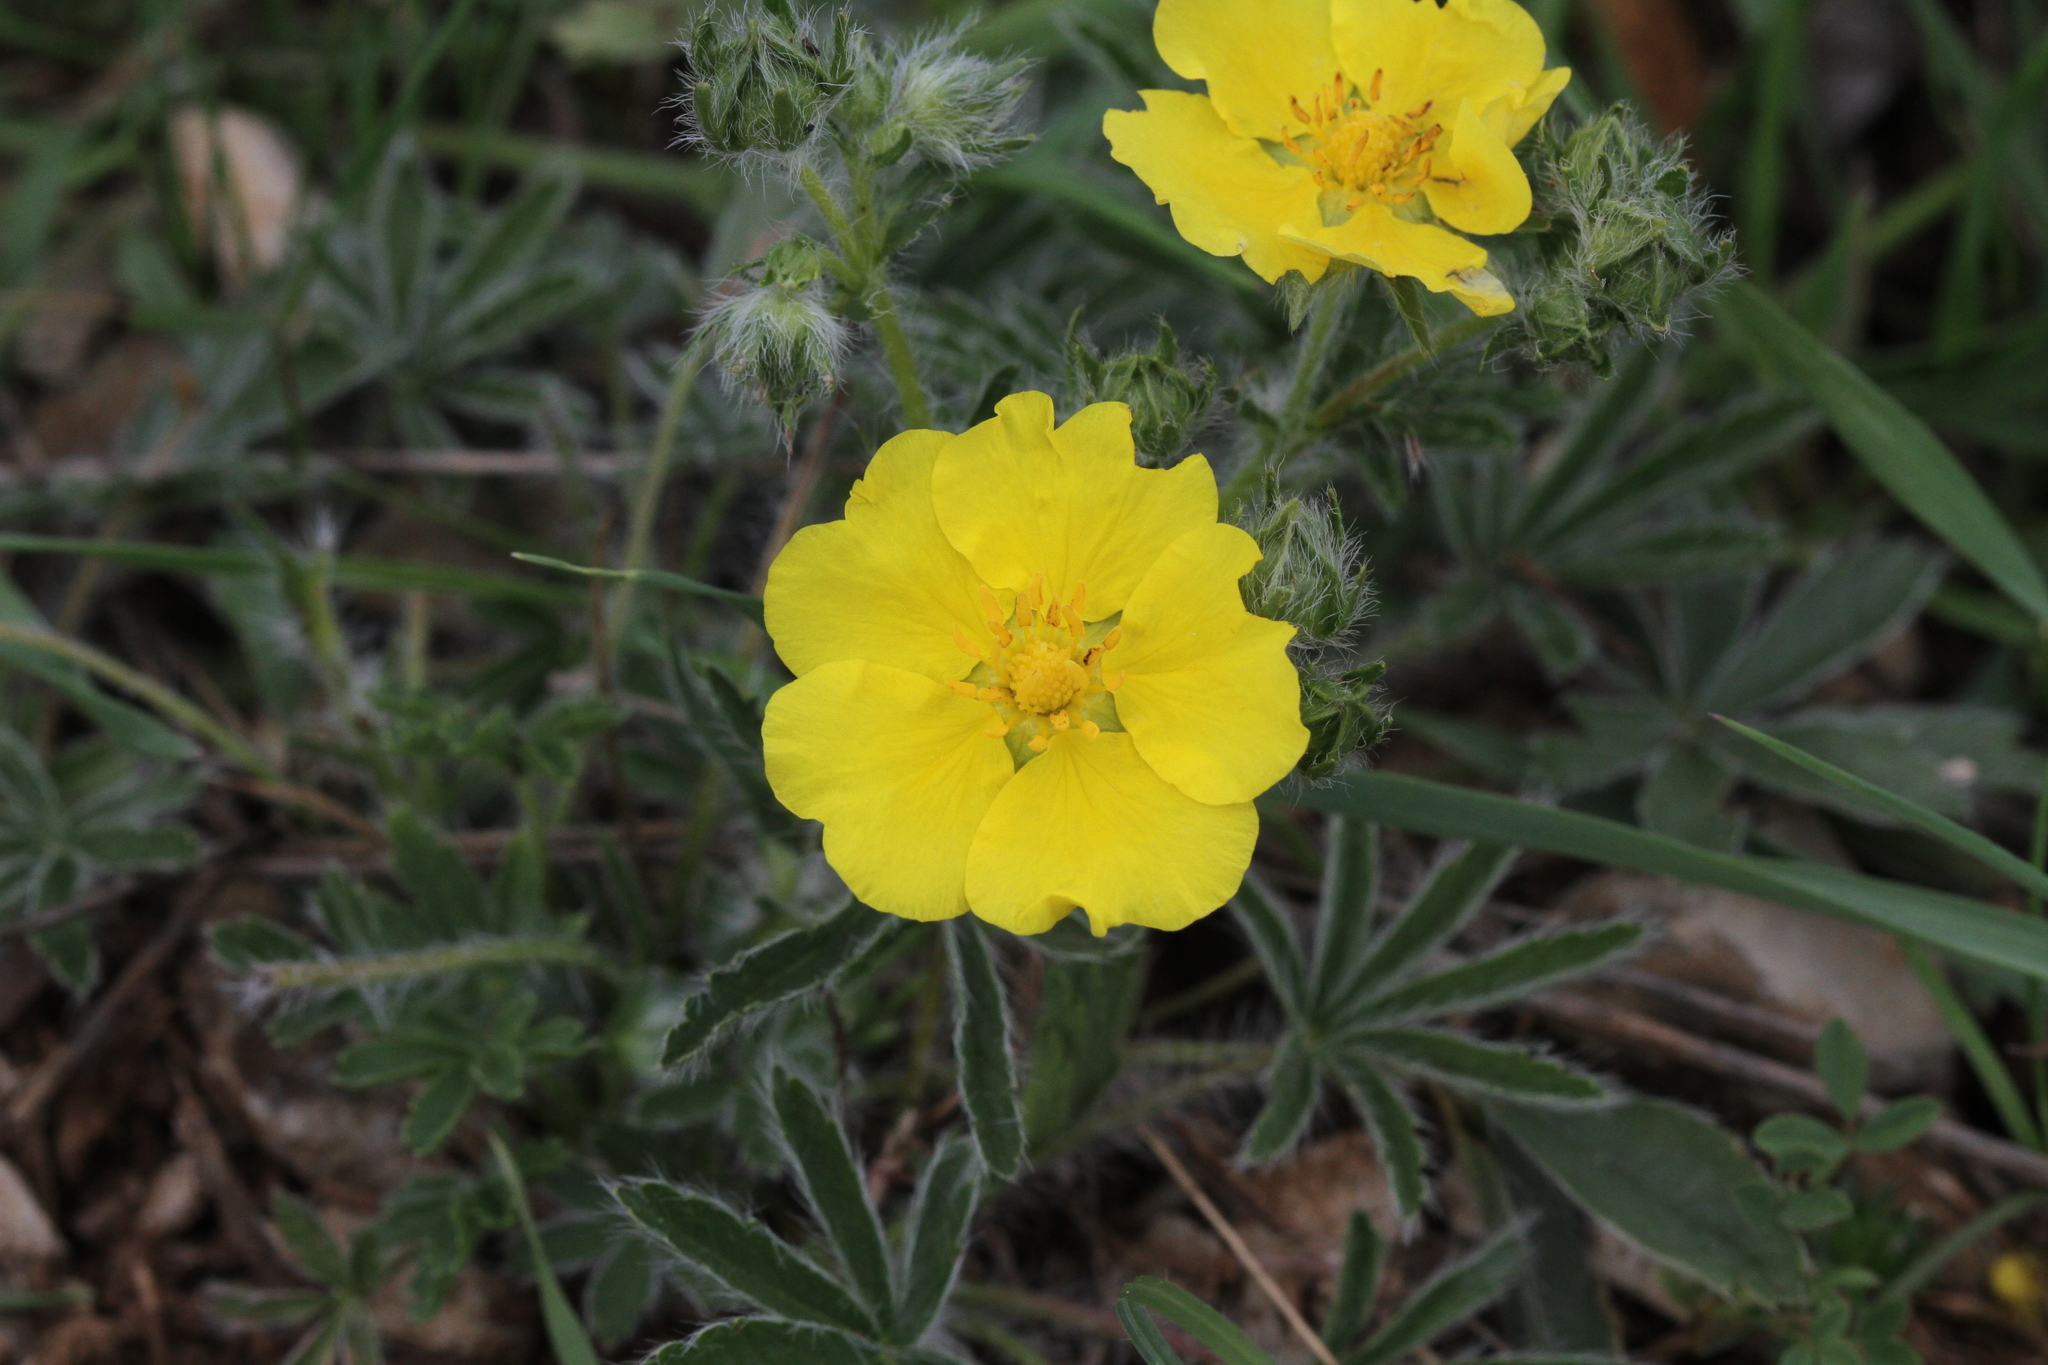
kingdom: Plantae
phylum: Tracheophyta
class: Magnoliopsida
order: Rosales
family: Rosaceae
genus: Potentilla
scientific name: Potentilla hirta
